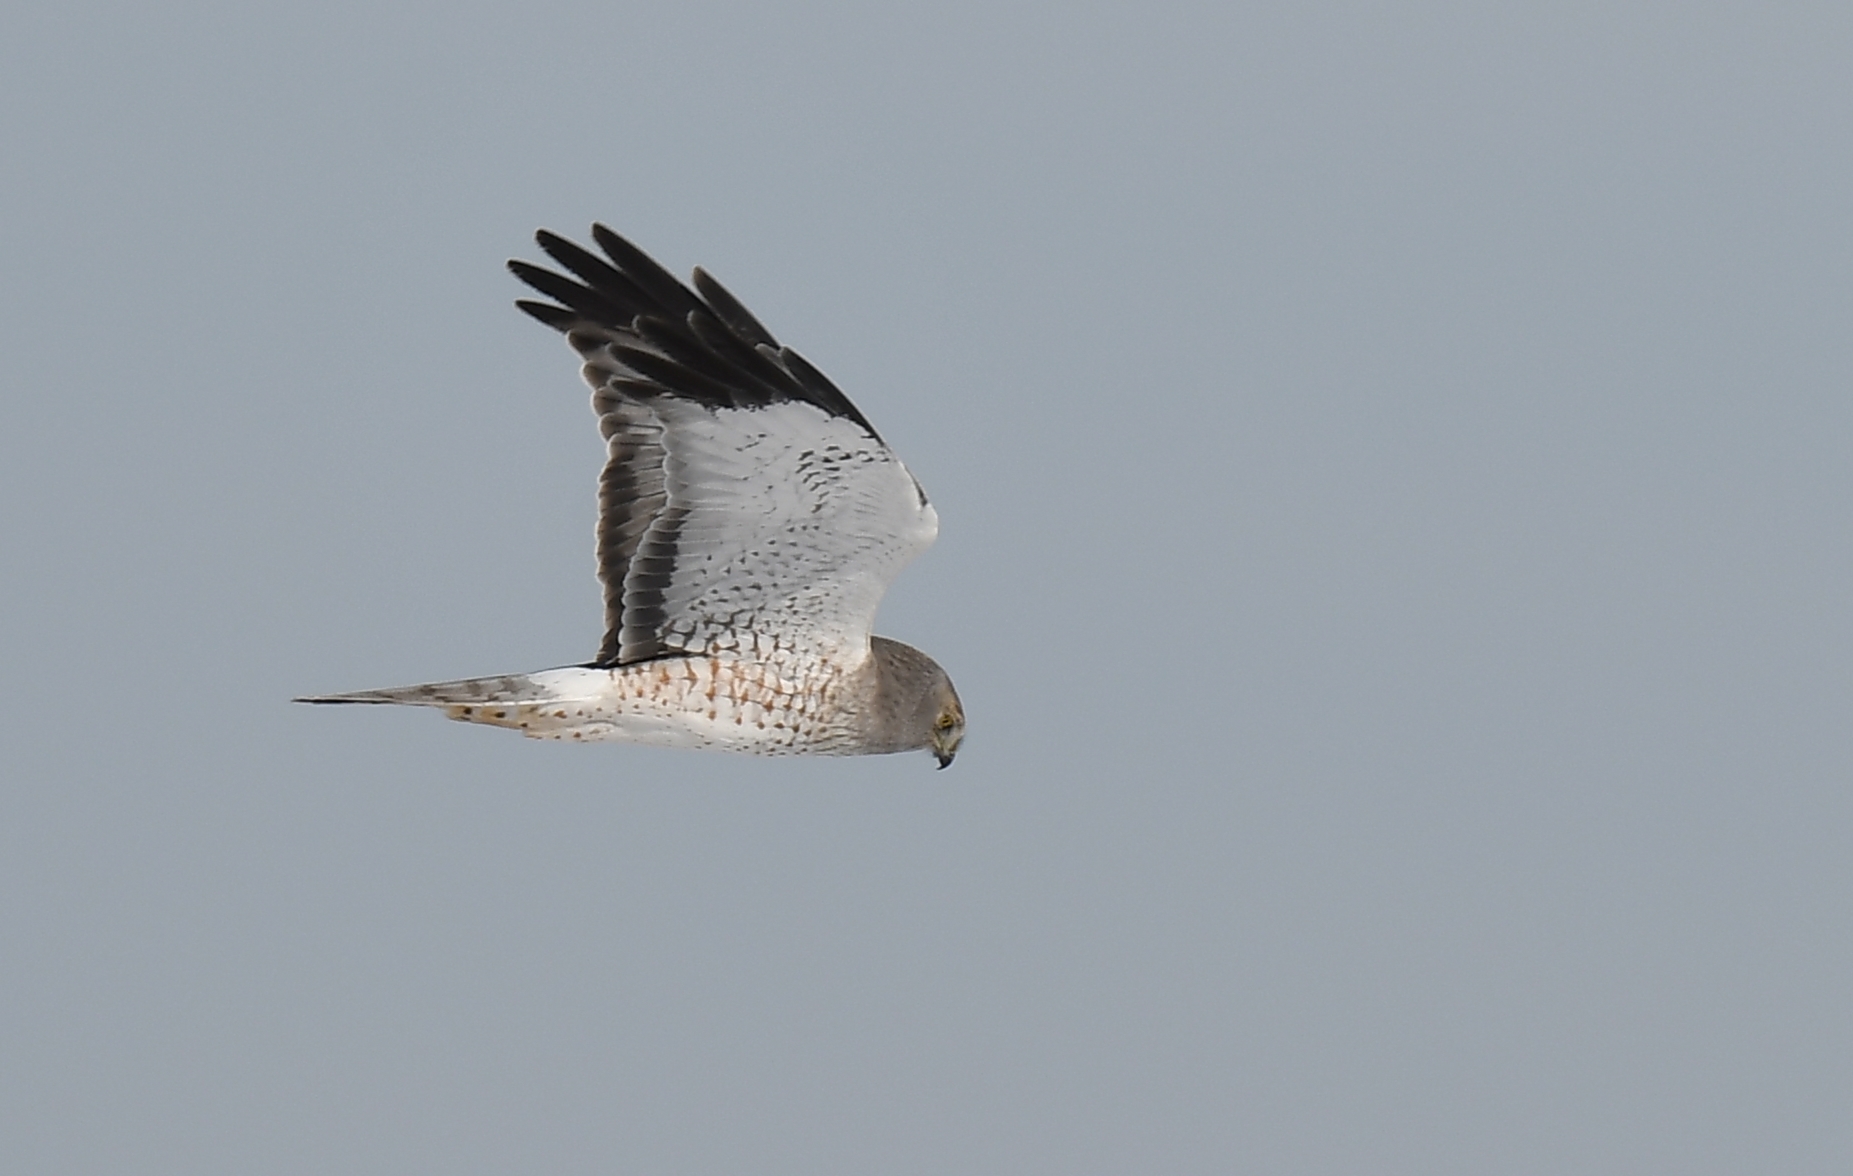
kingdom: Animalia
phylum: Chordata
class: Aves
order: Accipitriformes
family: Accipitridae
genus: Circus
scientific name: Circus cyaneus
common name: Hen harrier
